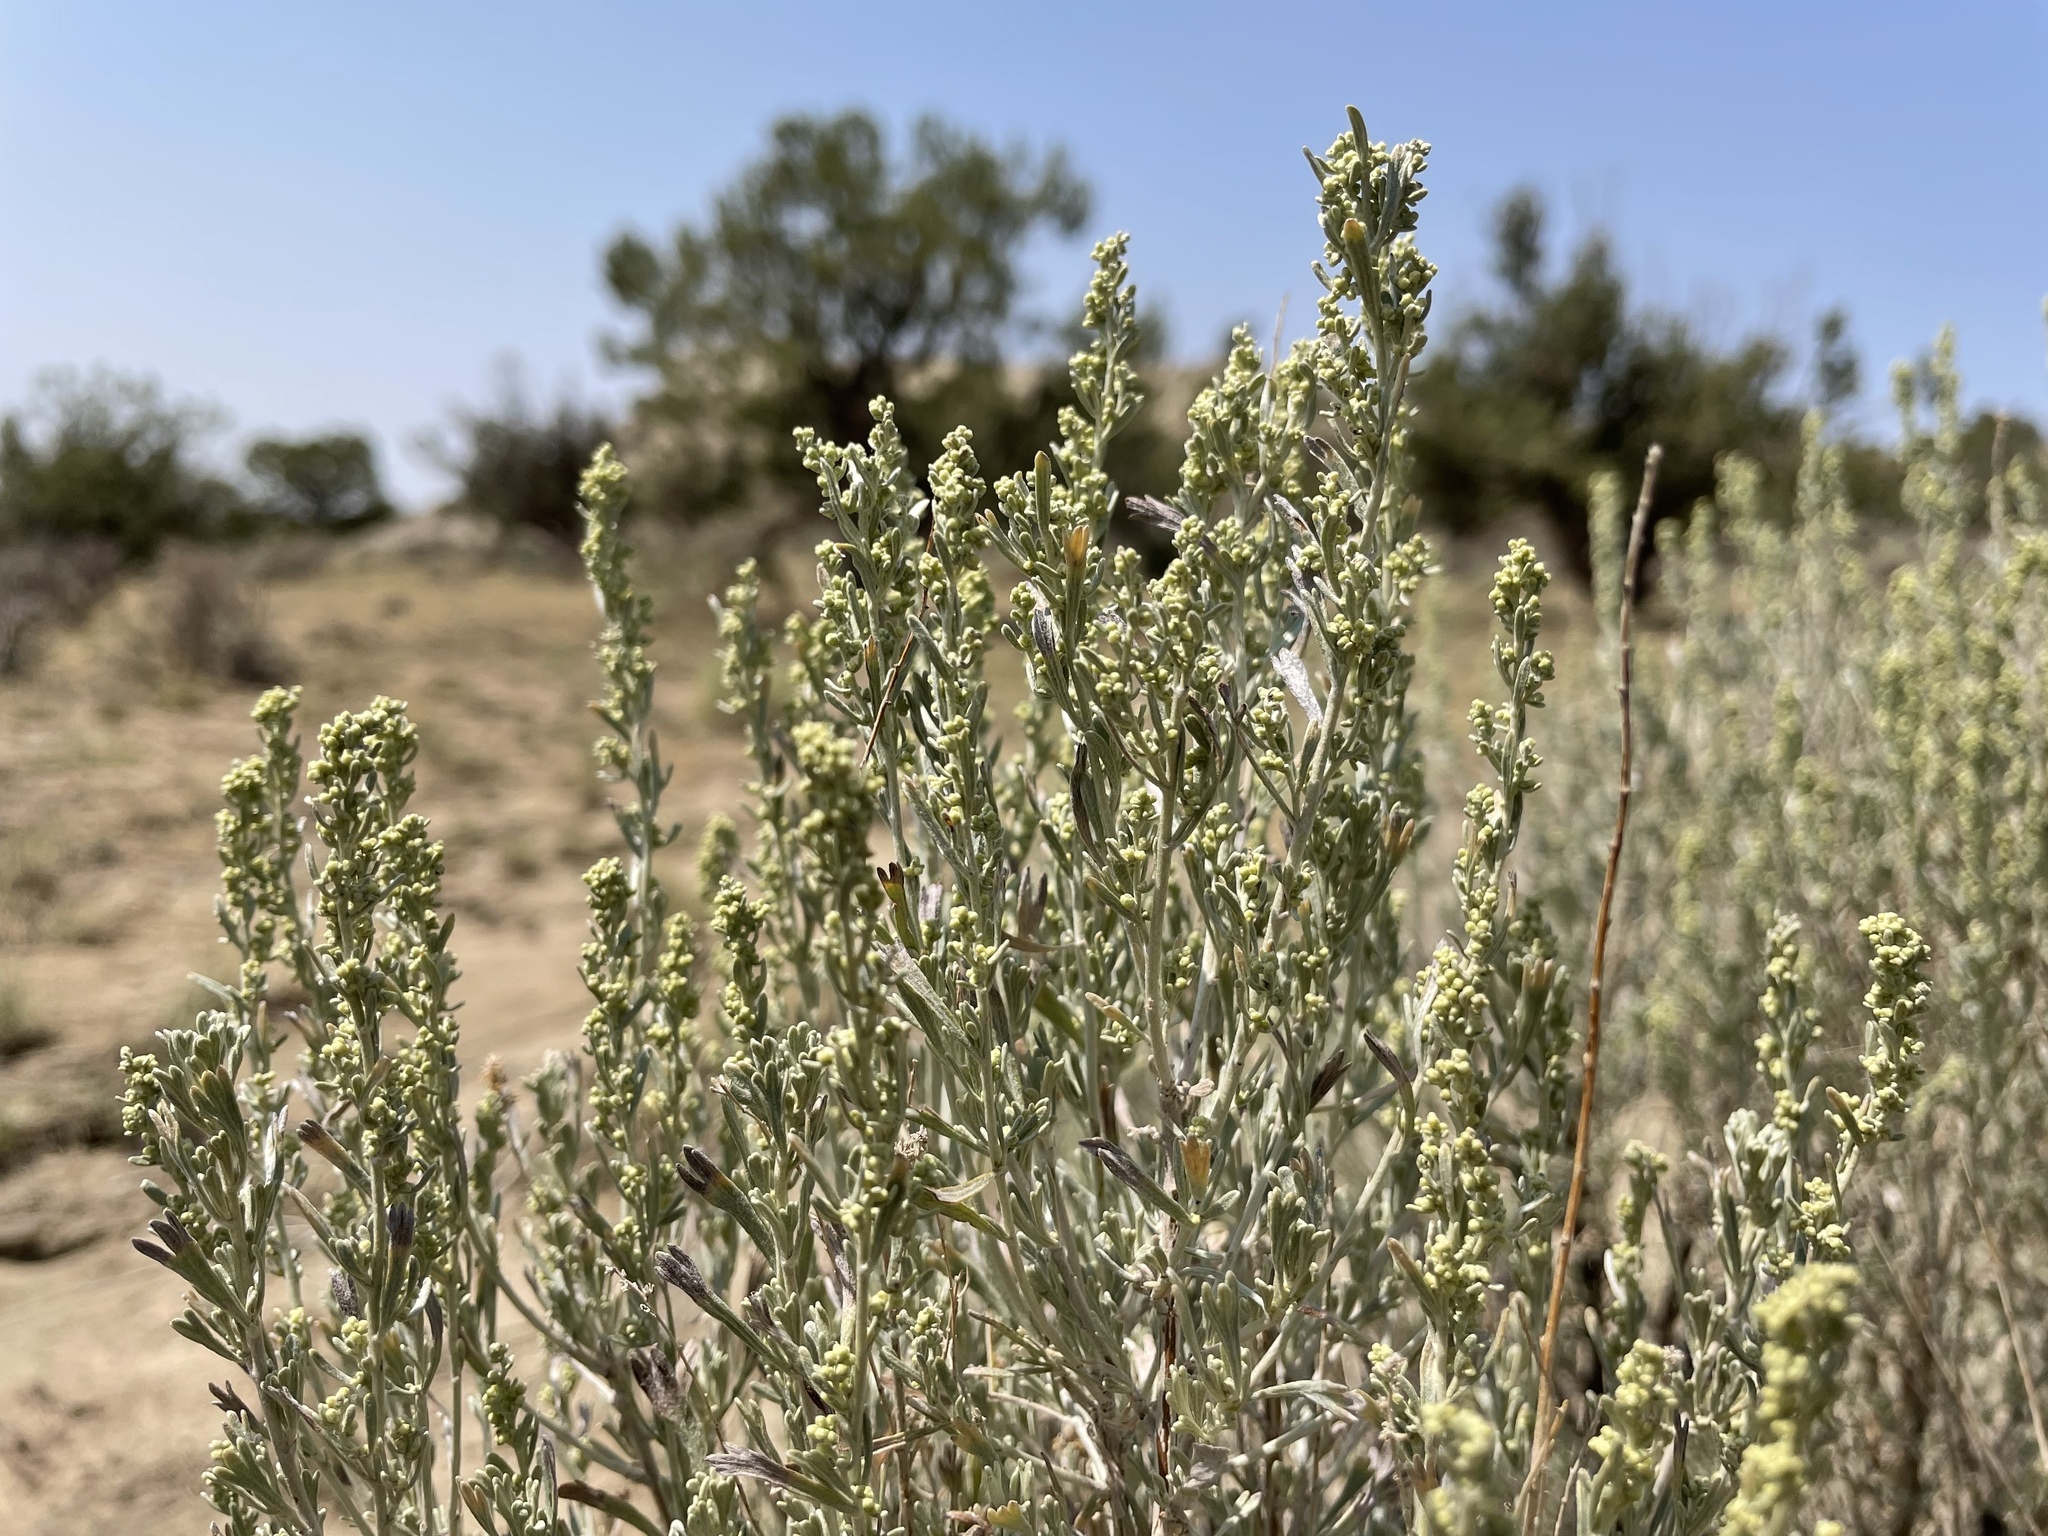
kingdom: Plantae
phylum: Tracheophyta
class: Magnoliopsida
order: Asterales
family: Asteraceae
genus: Artemisia
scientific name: Artemisia tridentata
